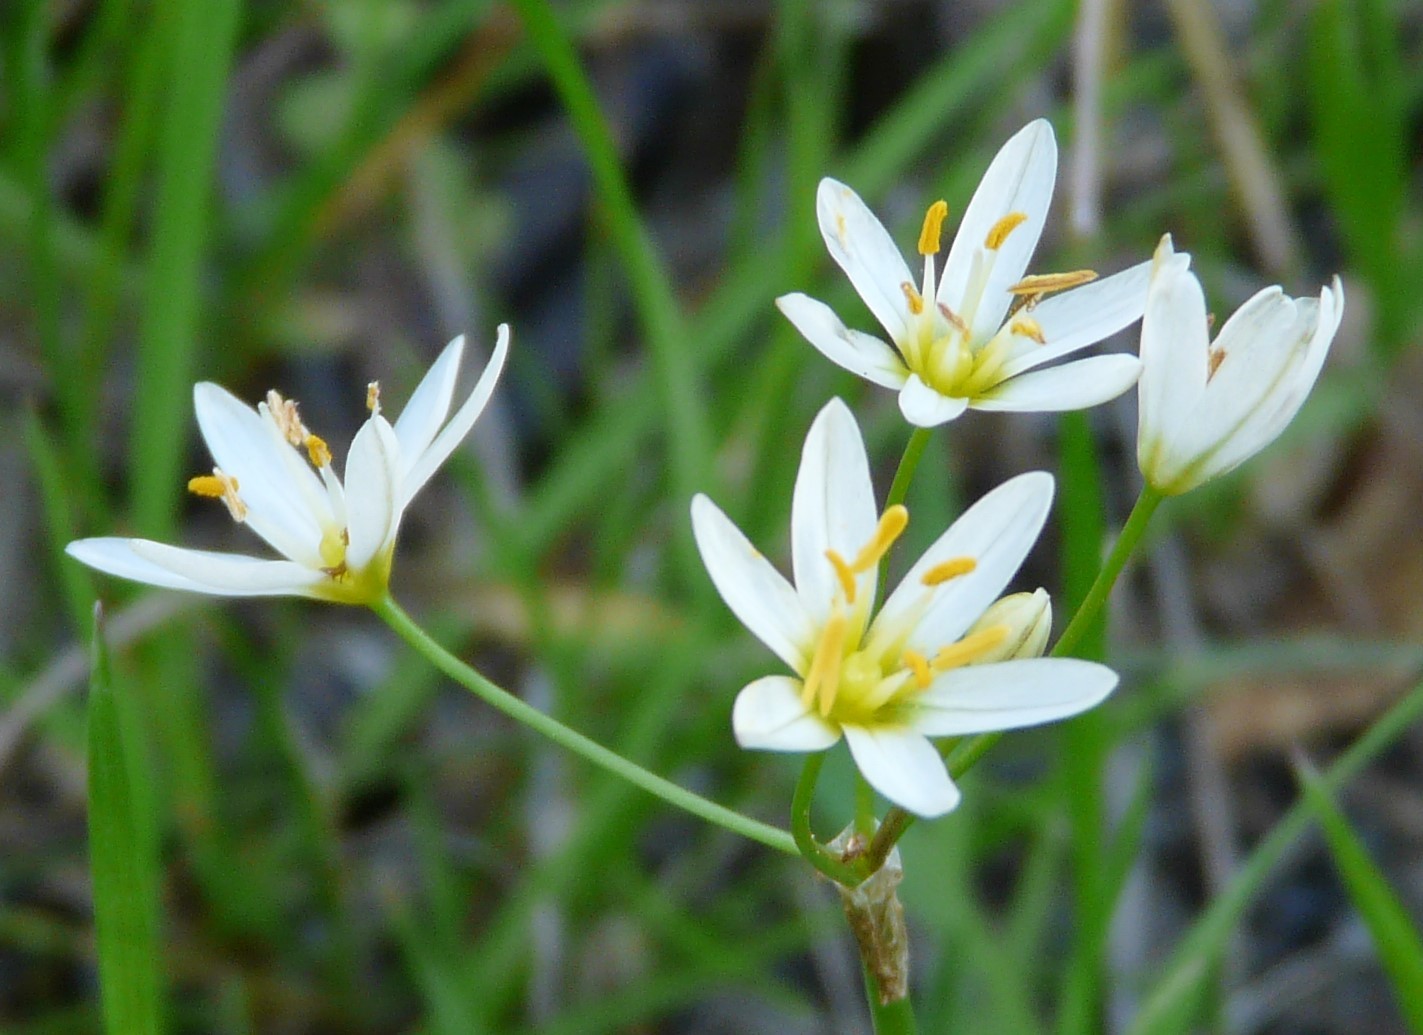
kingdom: Plantae
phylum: Tracheophyta
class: Liliopsida
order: Asparagales
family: Amaryllidaceae
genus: Nothoscordum
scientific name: Nothoscordum bivalve
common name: Crow-poison
